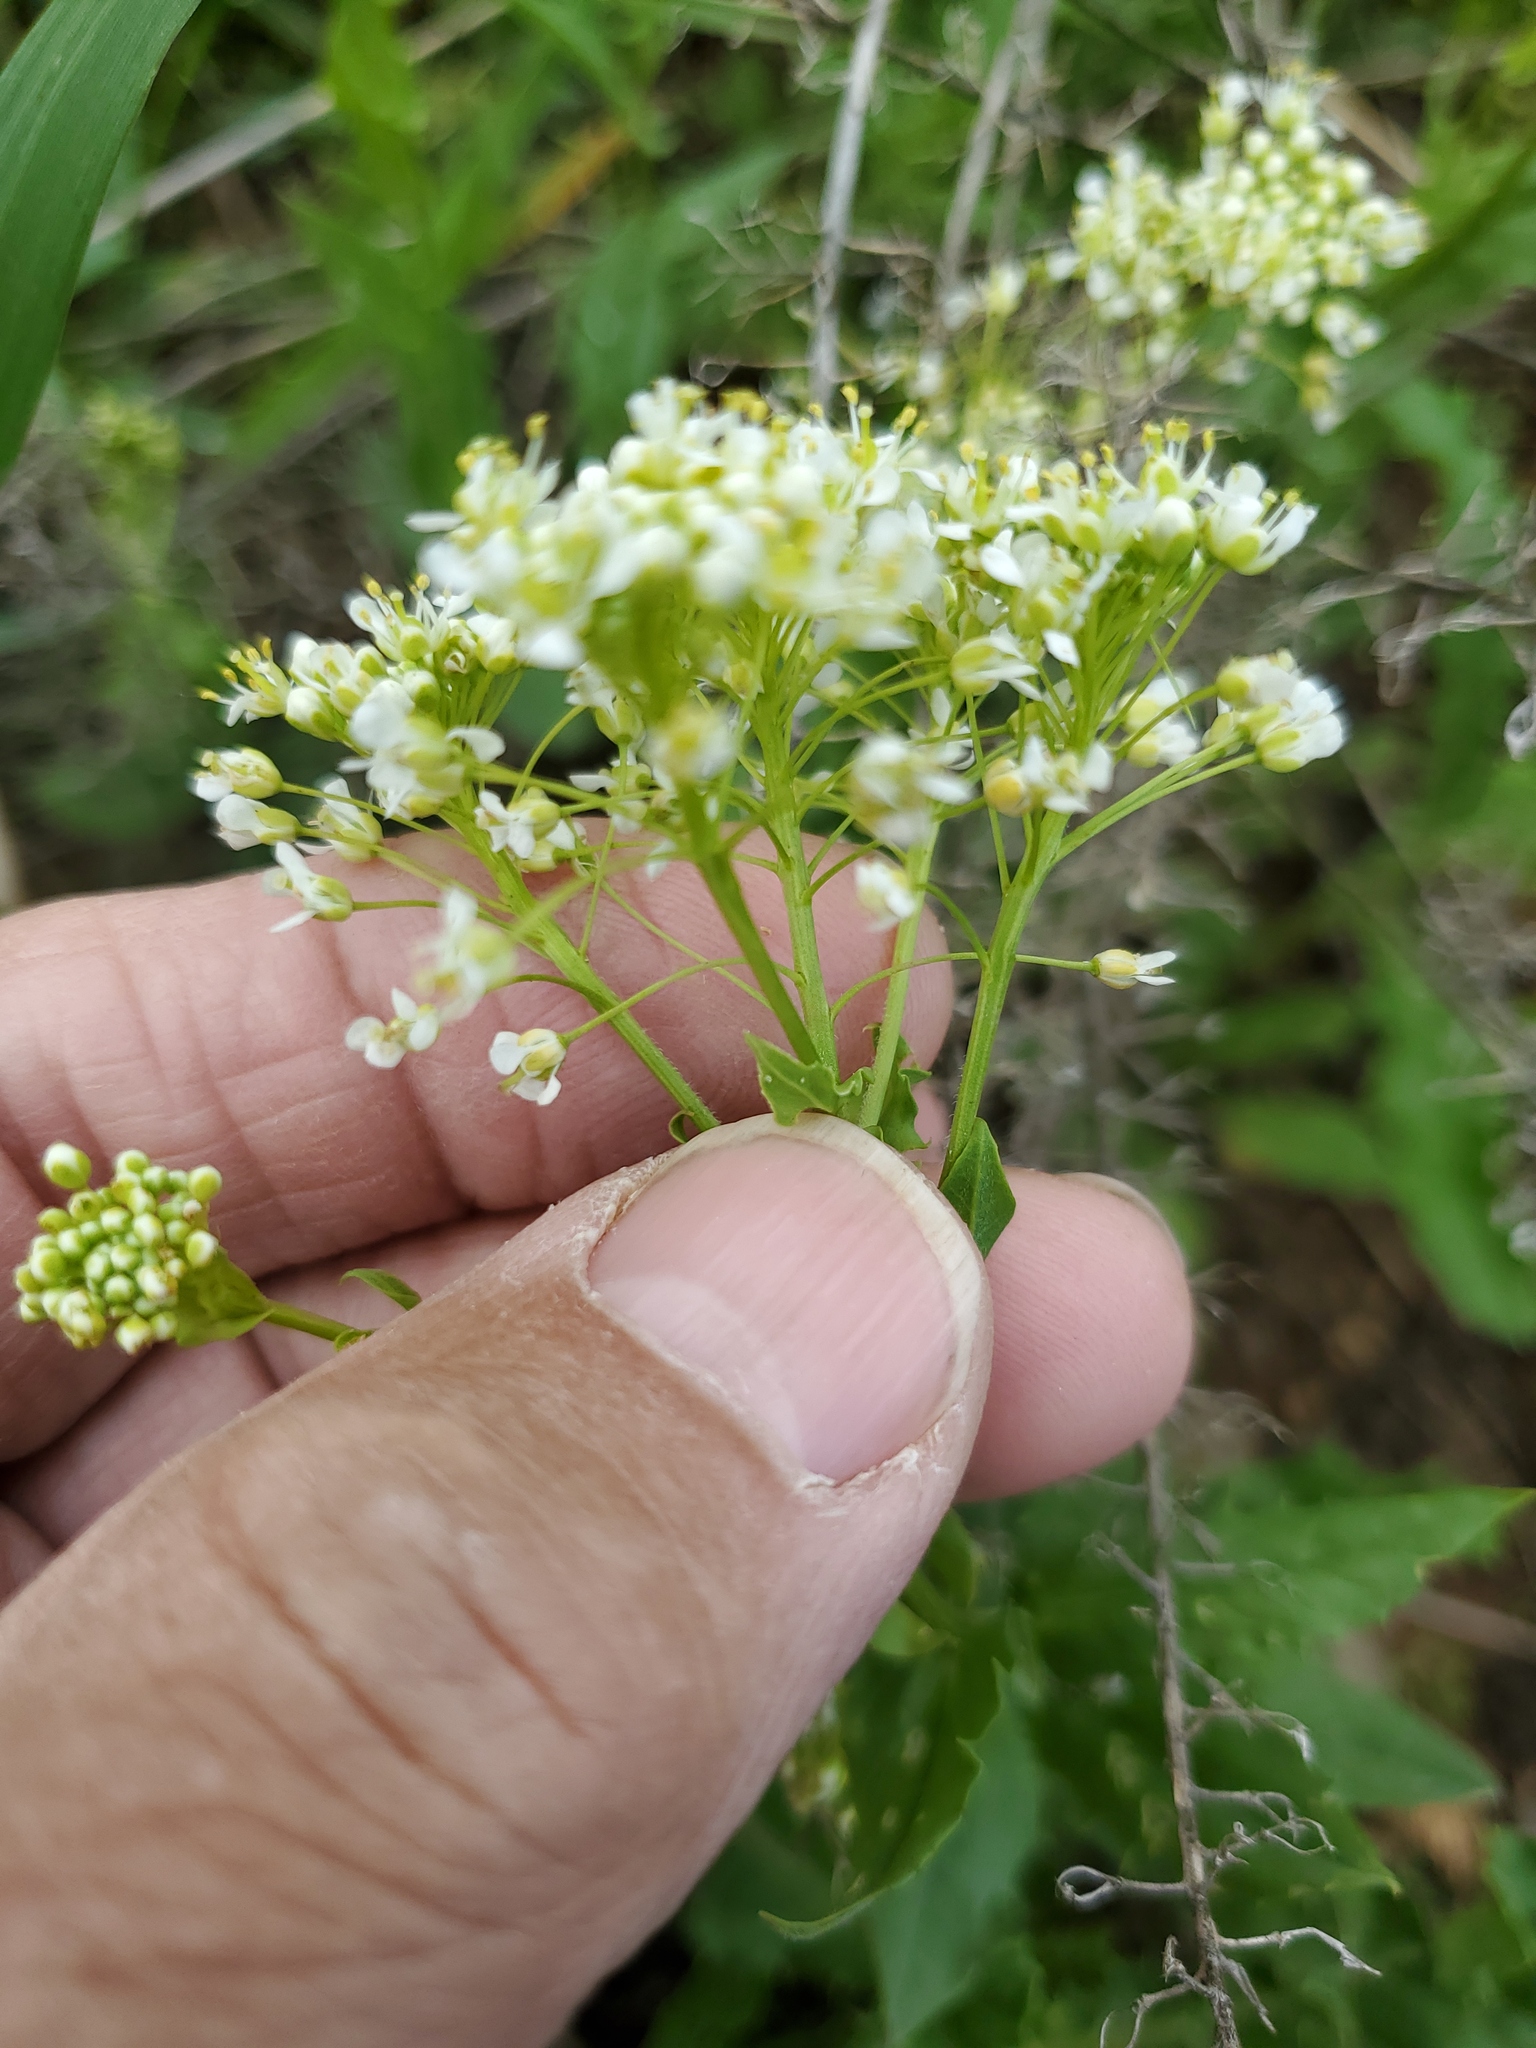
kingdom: Plantae
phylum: Tracheophyta
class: Magnoliopsida
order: Brassicales
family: Brassicaceae
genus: Thlaspi
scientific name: Thlaspi arvense
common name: Field pennycress
